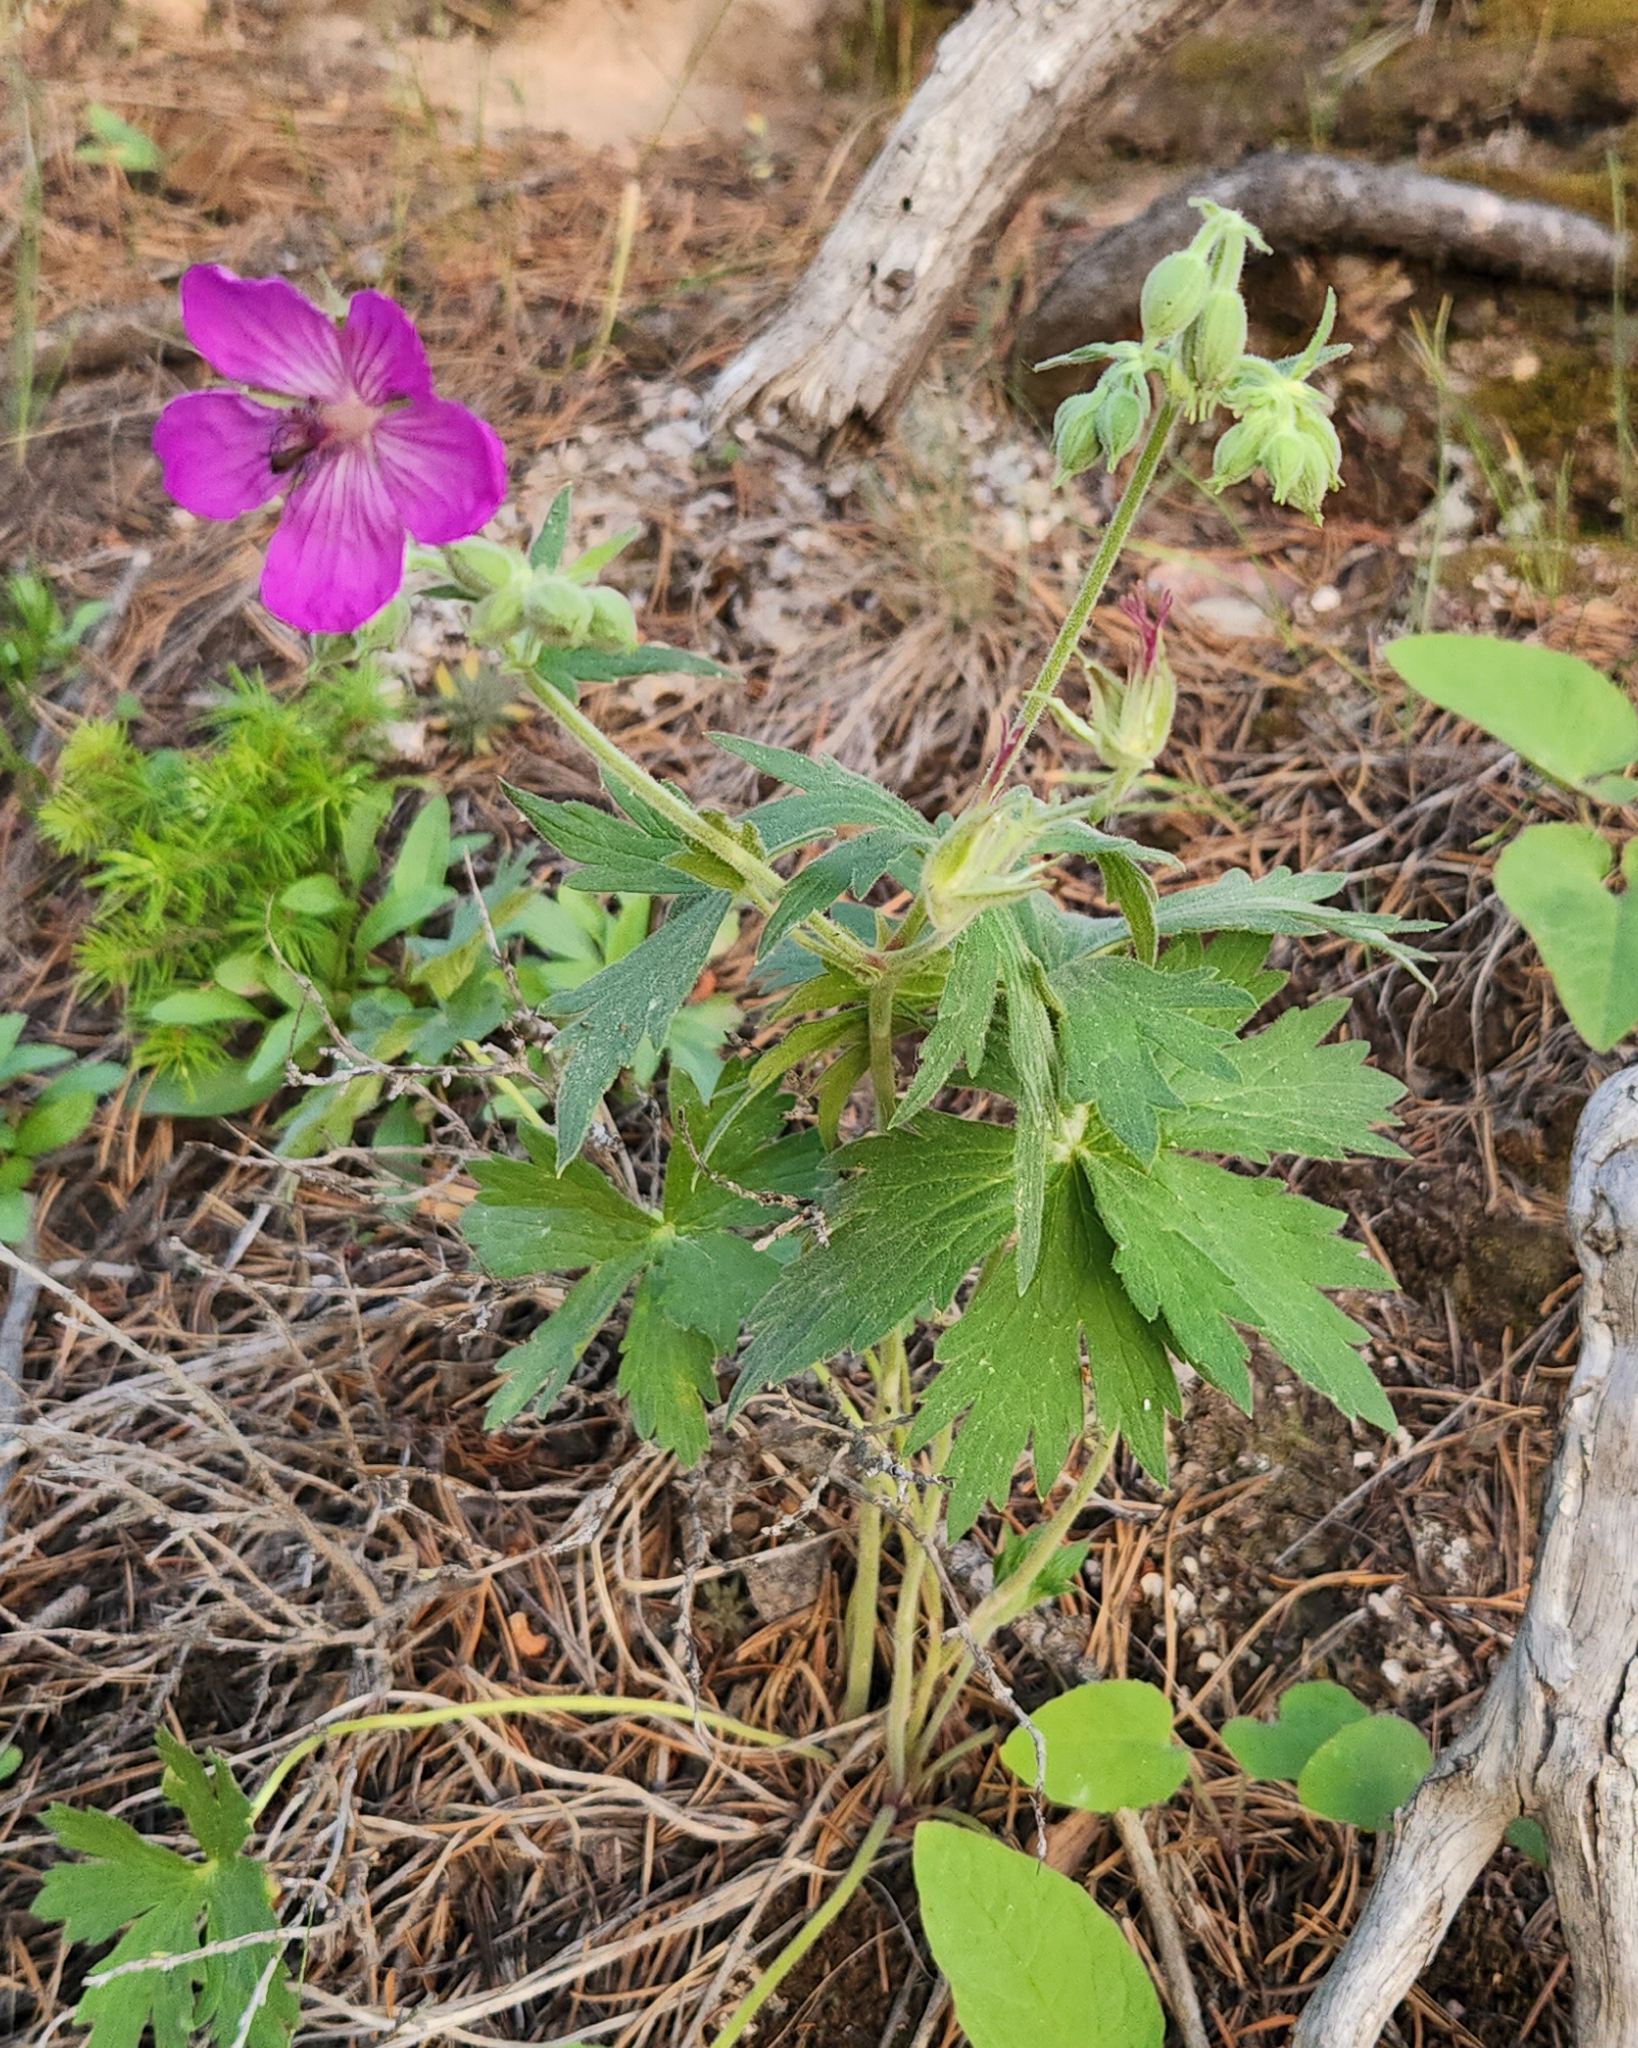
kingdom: Plantae
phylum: Tracheophyta
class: Magnoliopsida
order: Geraniales
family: Geraniaceae
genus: Geranium
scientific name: Geranium viscosissimum
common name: Purple geranium
